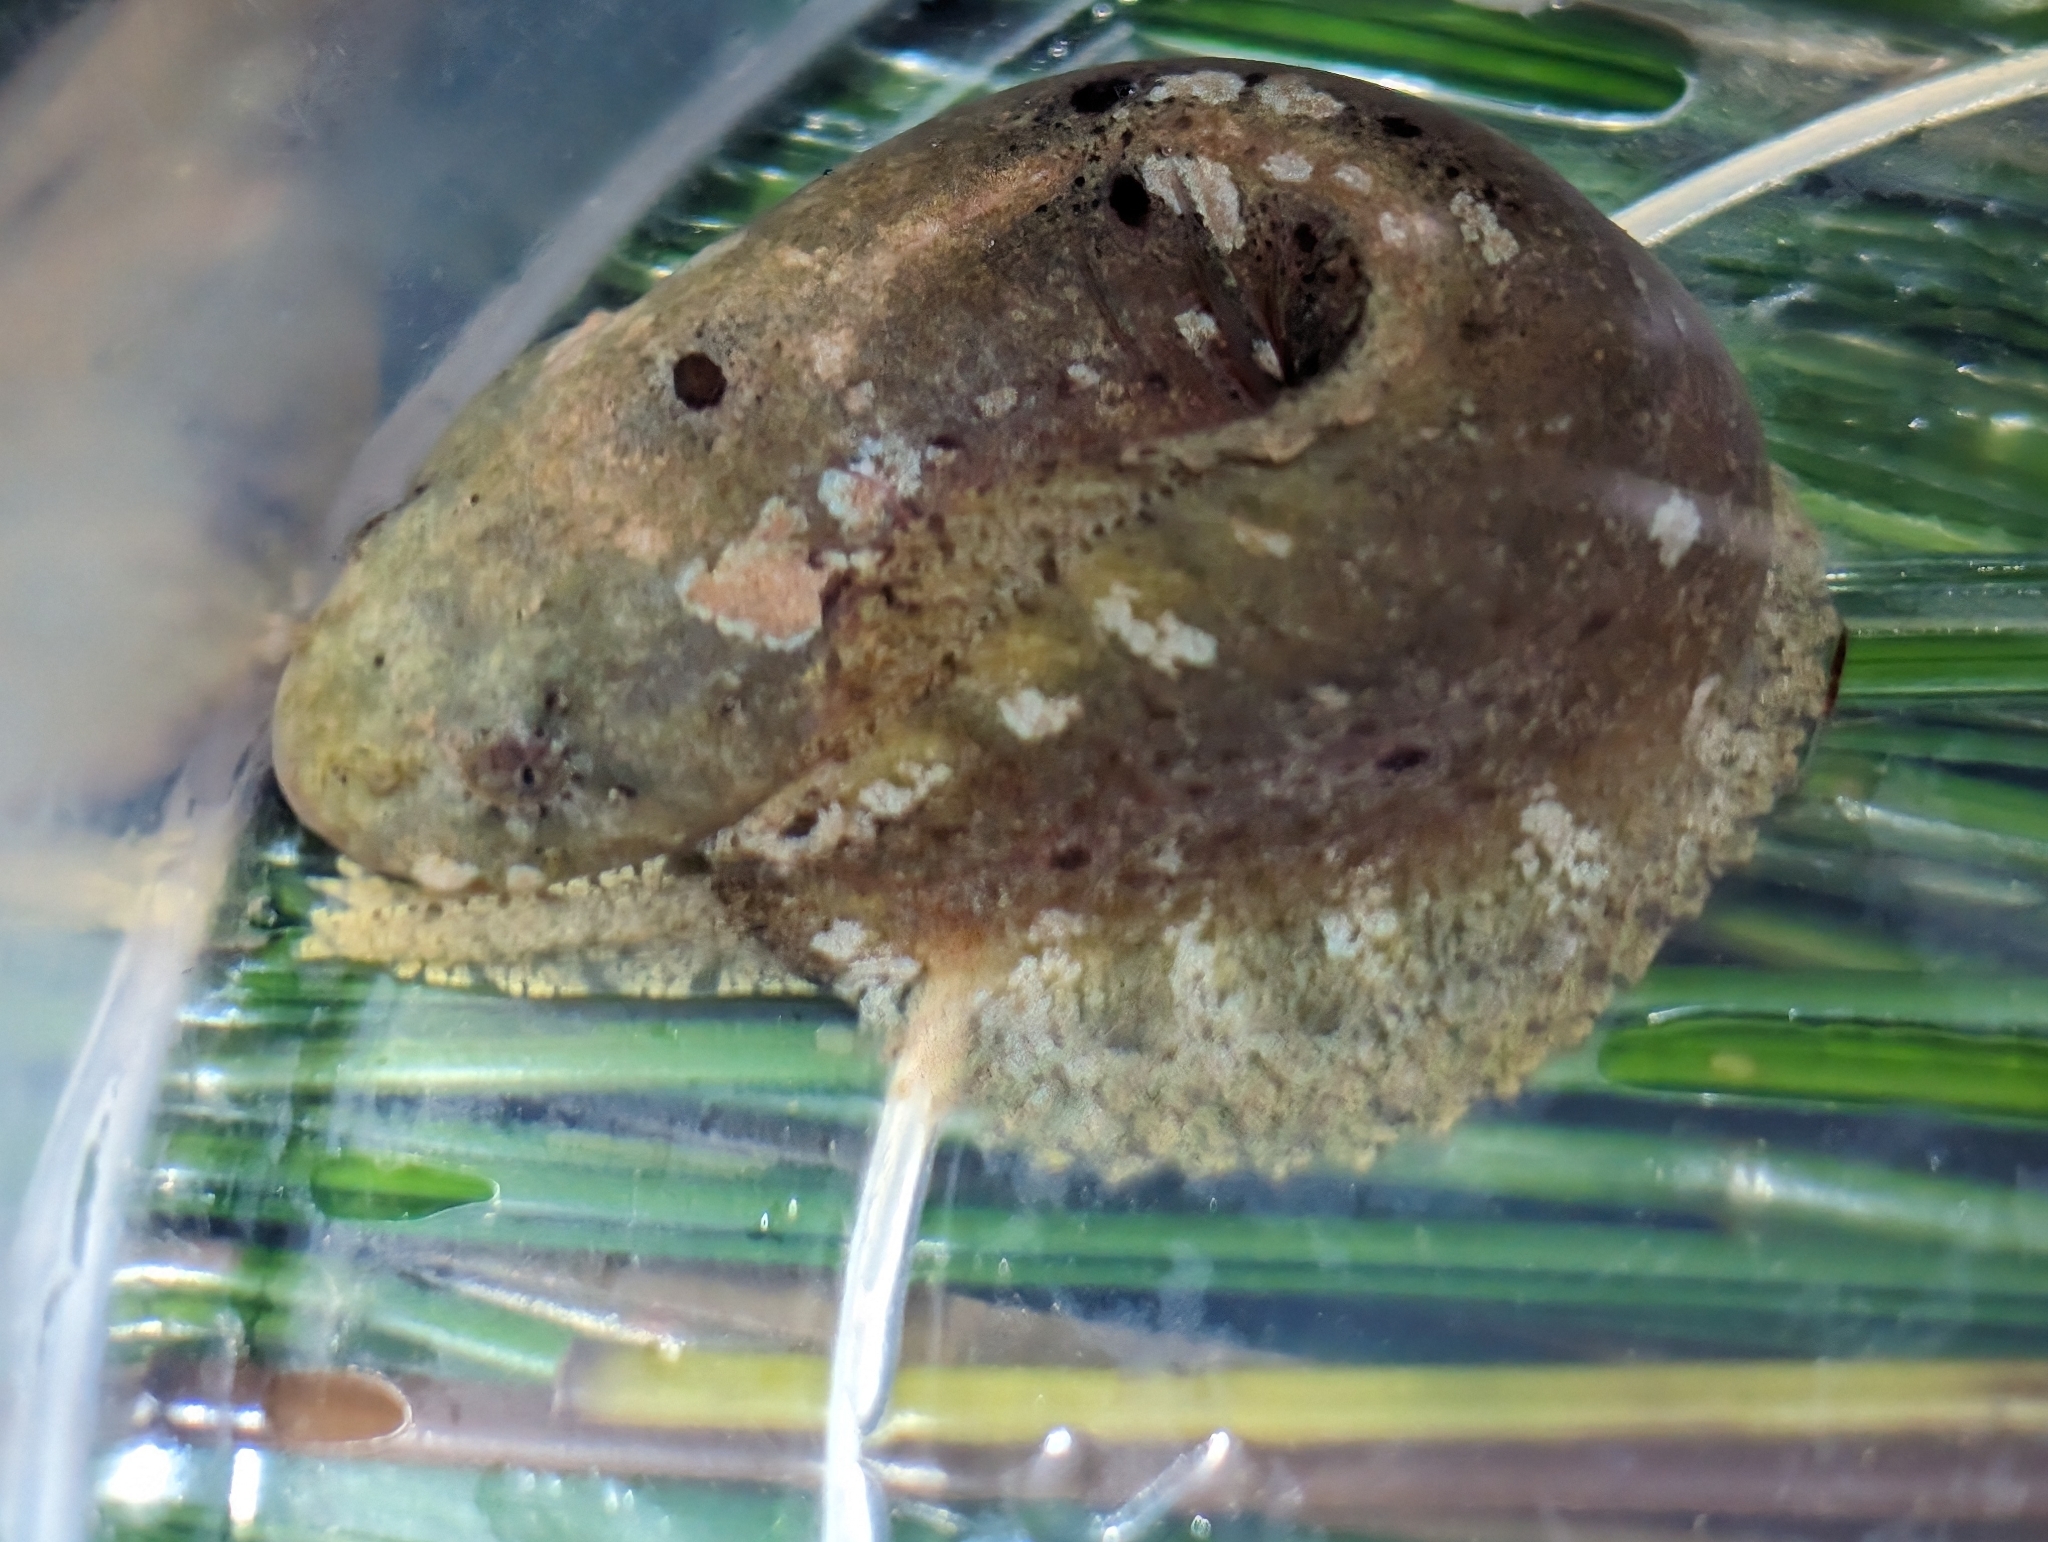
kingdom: Animalia
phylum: Chordata
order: Scorpaeniformes
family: Liparidae
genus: Liparis
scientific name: Liparis mucosus
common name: Slimy snailfish
